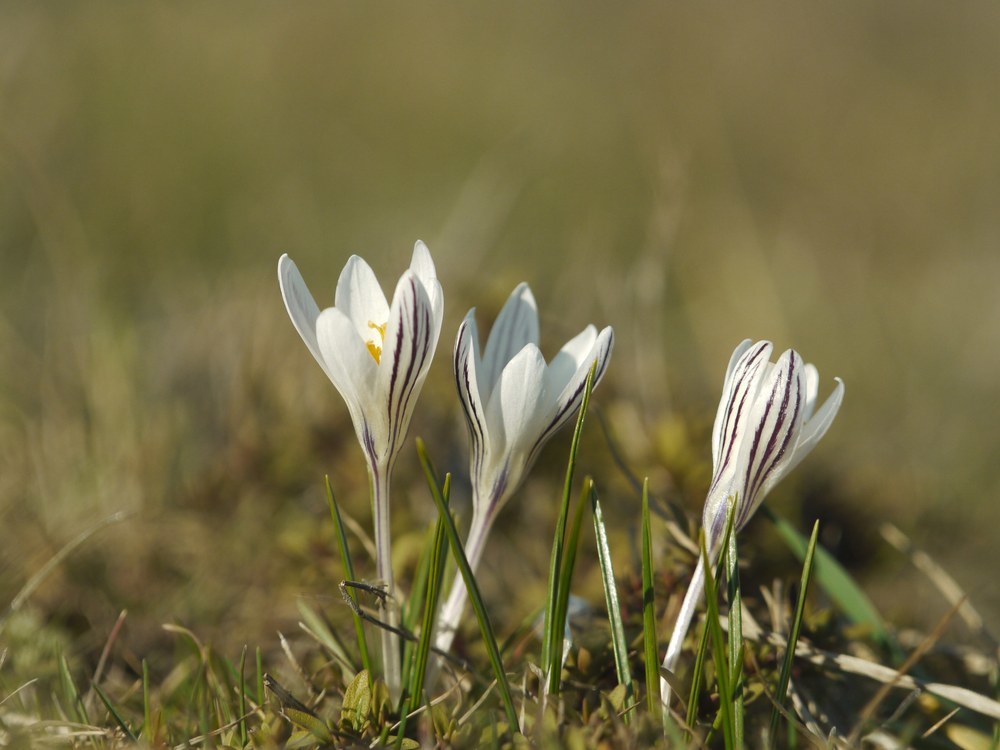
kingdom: Plantae
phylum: Tracheophyta
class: Liliopsida
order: Asparagales
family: Iridaceae
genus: Crocus
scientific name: Crocus reticulatus
